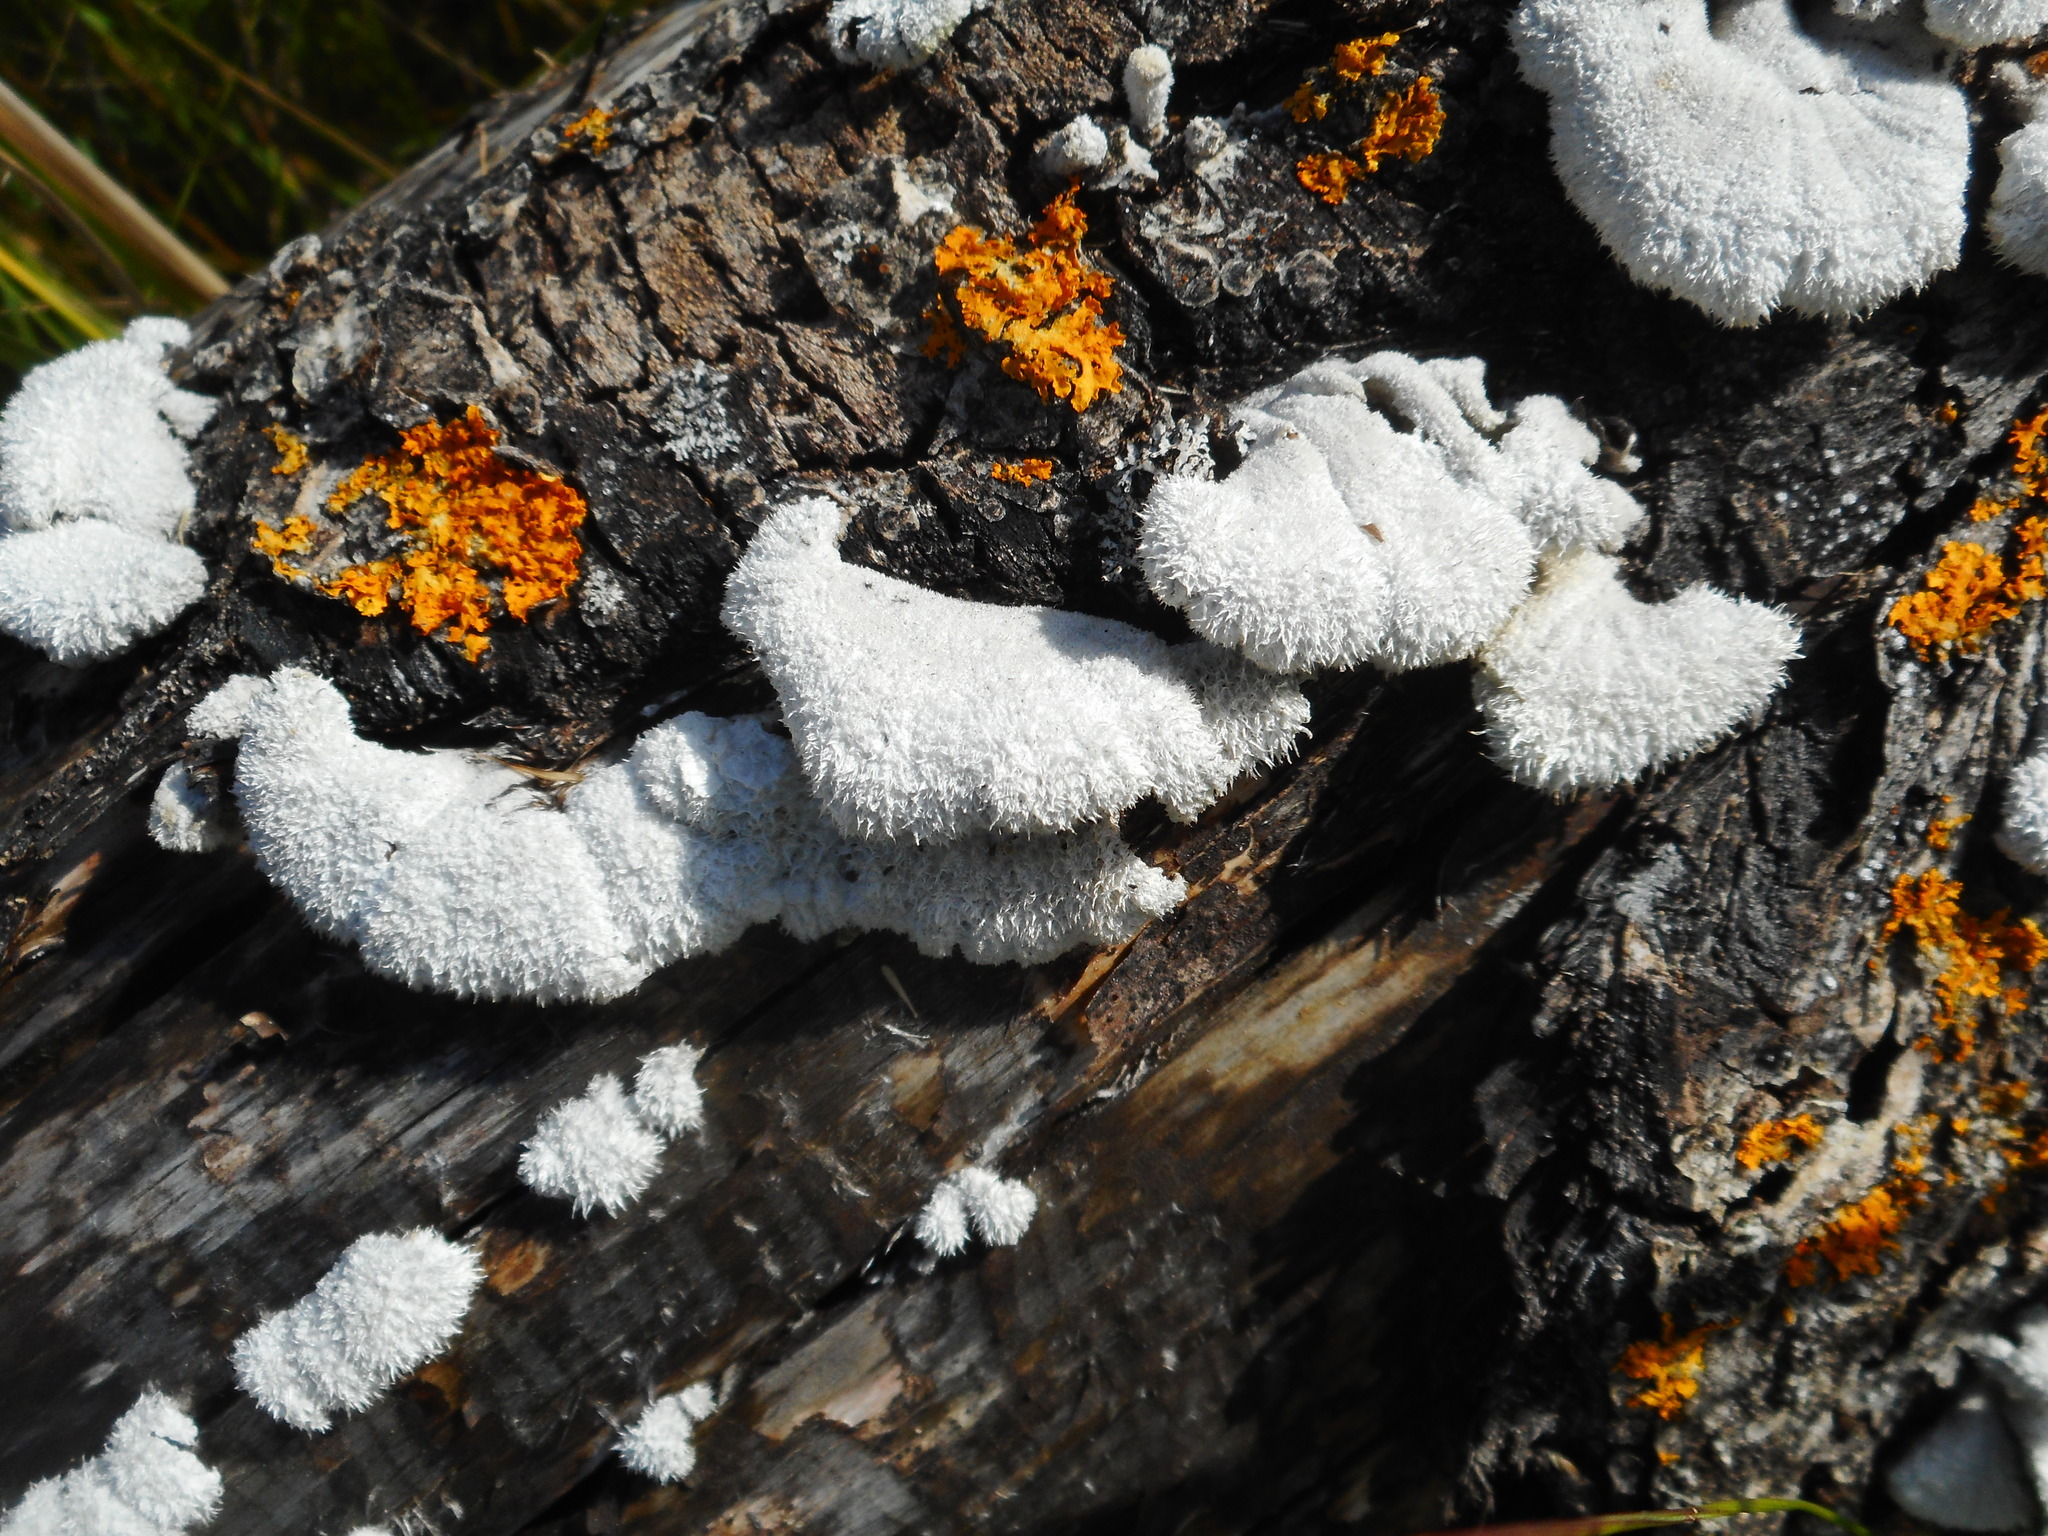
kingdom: Fungi
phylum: Basidiomycota
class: Agaricomycetes
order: Agaricales
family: Schizophyllaceae
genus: Schizophyllum
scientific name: Schizophyllum commune
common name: Common porecrust
